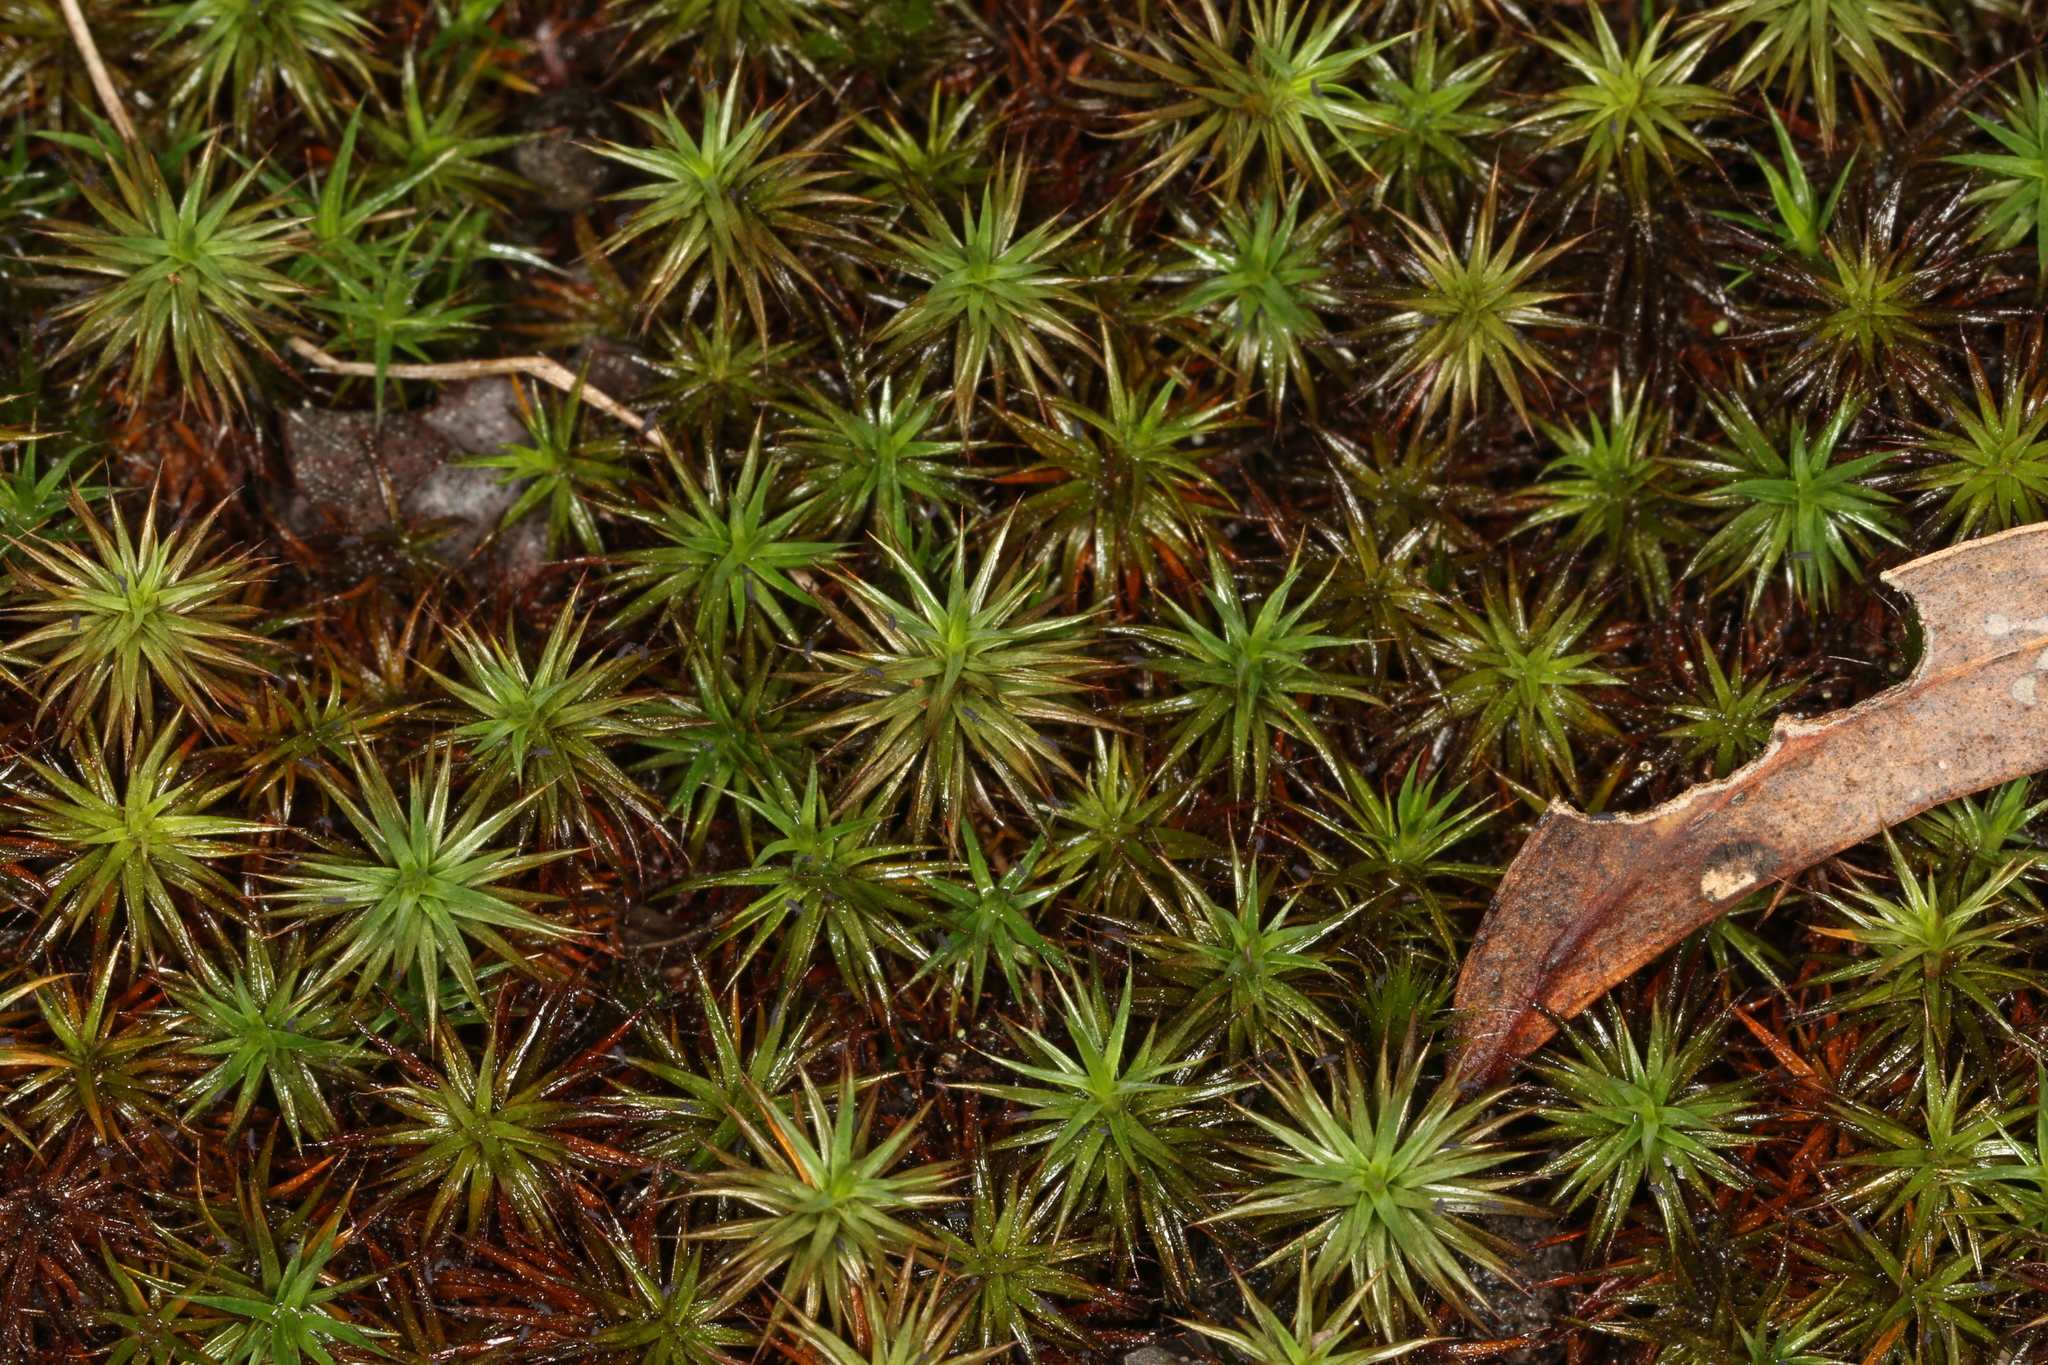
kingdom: Plantae
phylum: Bryophyta
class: Polytrichopsida
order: Polytrichales
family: Polytrichaceae
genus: Polytrichum
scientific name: Polytrichum juniperinum
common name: Juniper haircap moss
